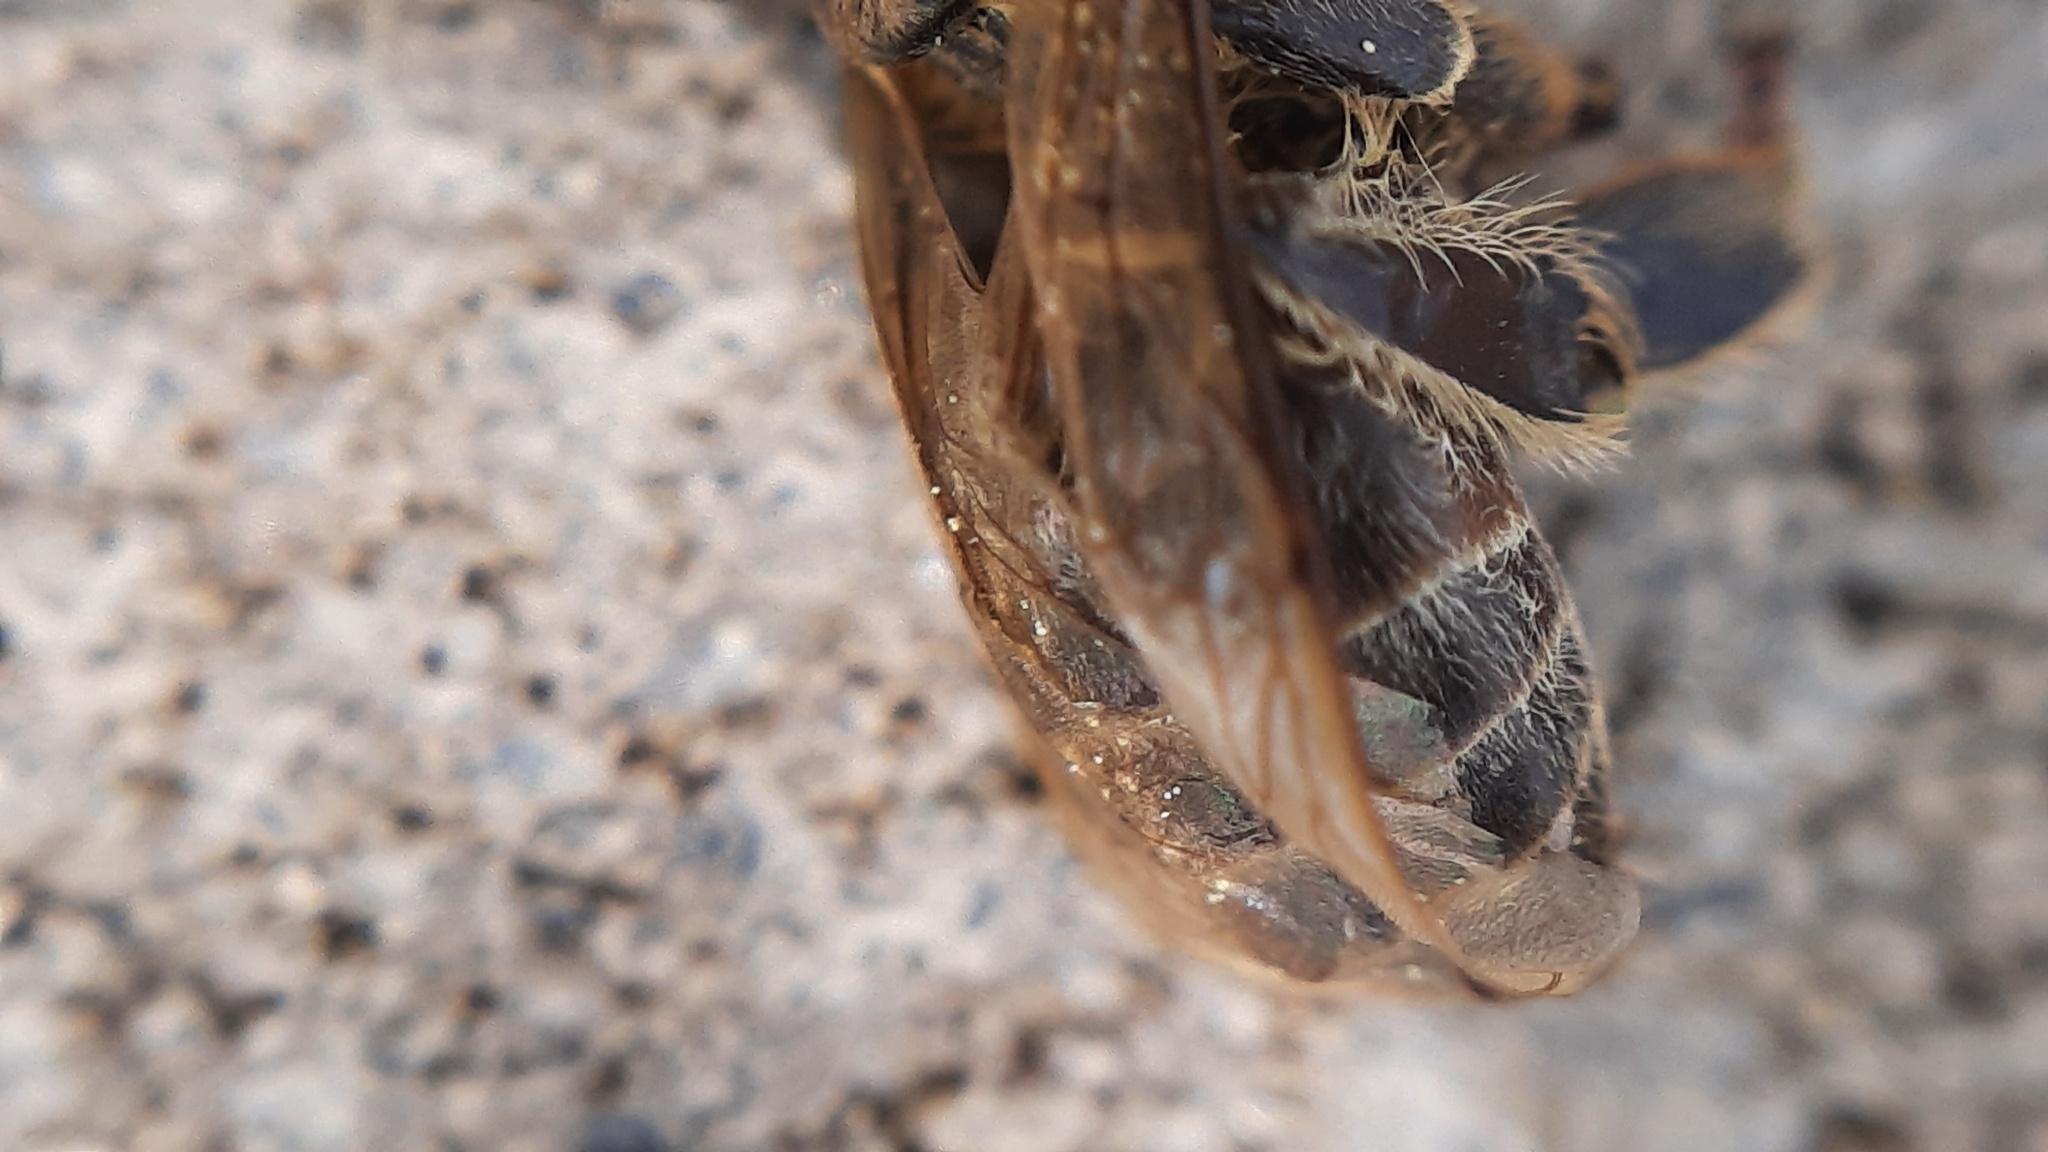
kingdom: Animalia
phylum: Arthropoda
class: Insecta
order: Hymenoptera
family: Apidae
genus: Apis
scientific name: Apis mellifera
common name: Honey bee
